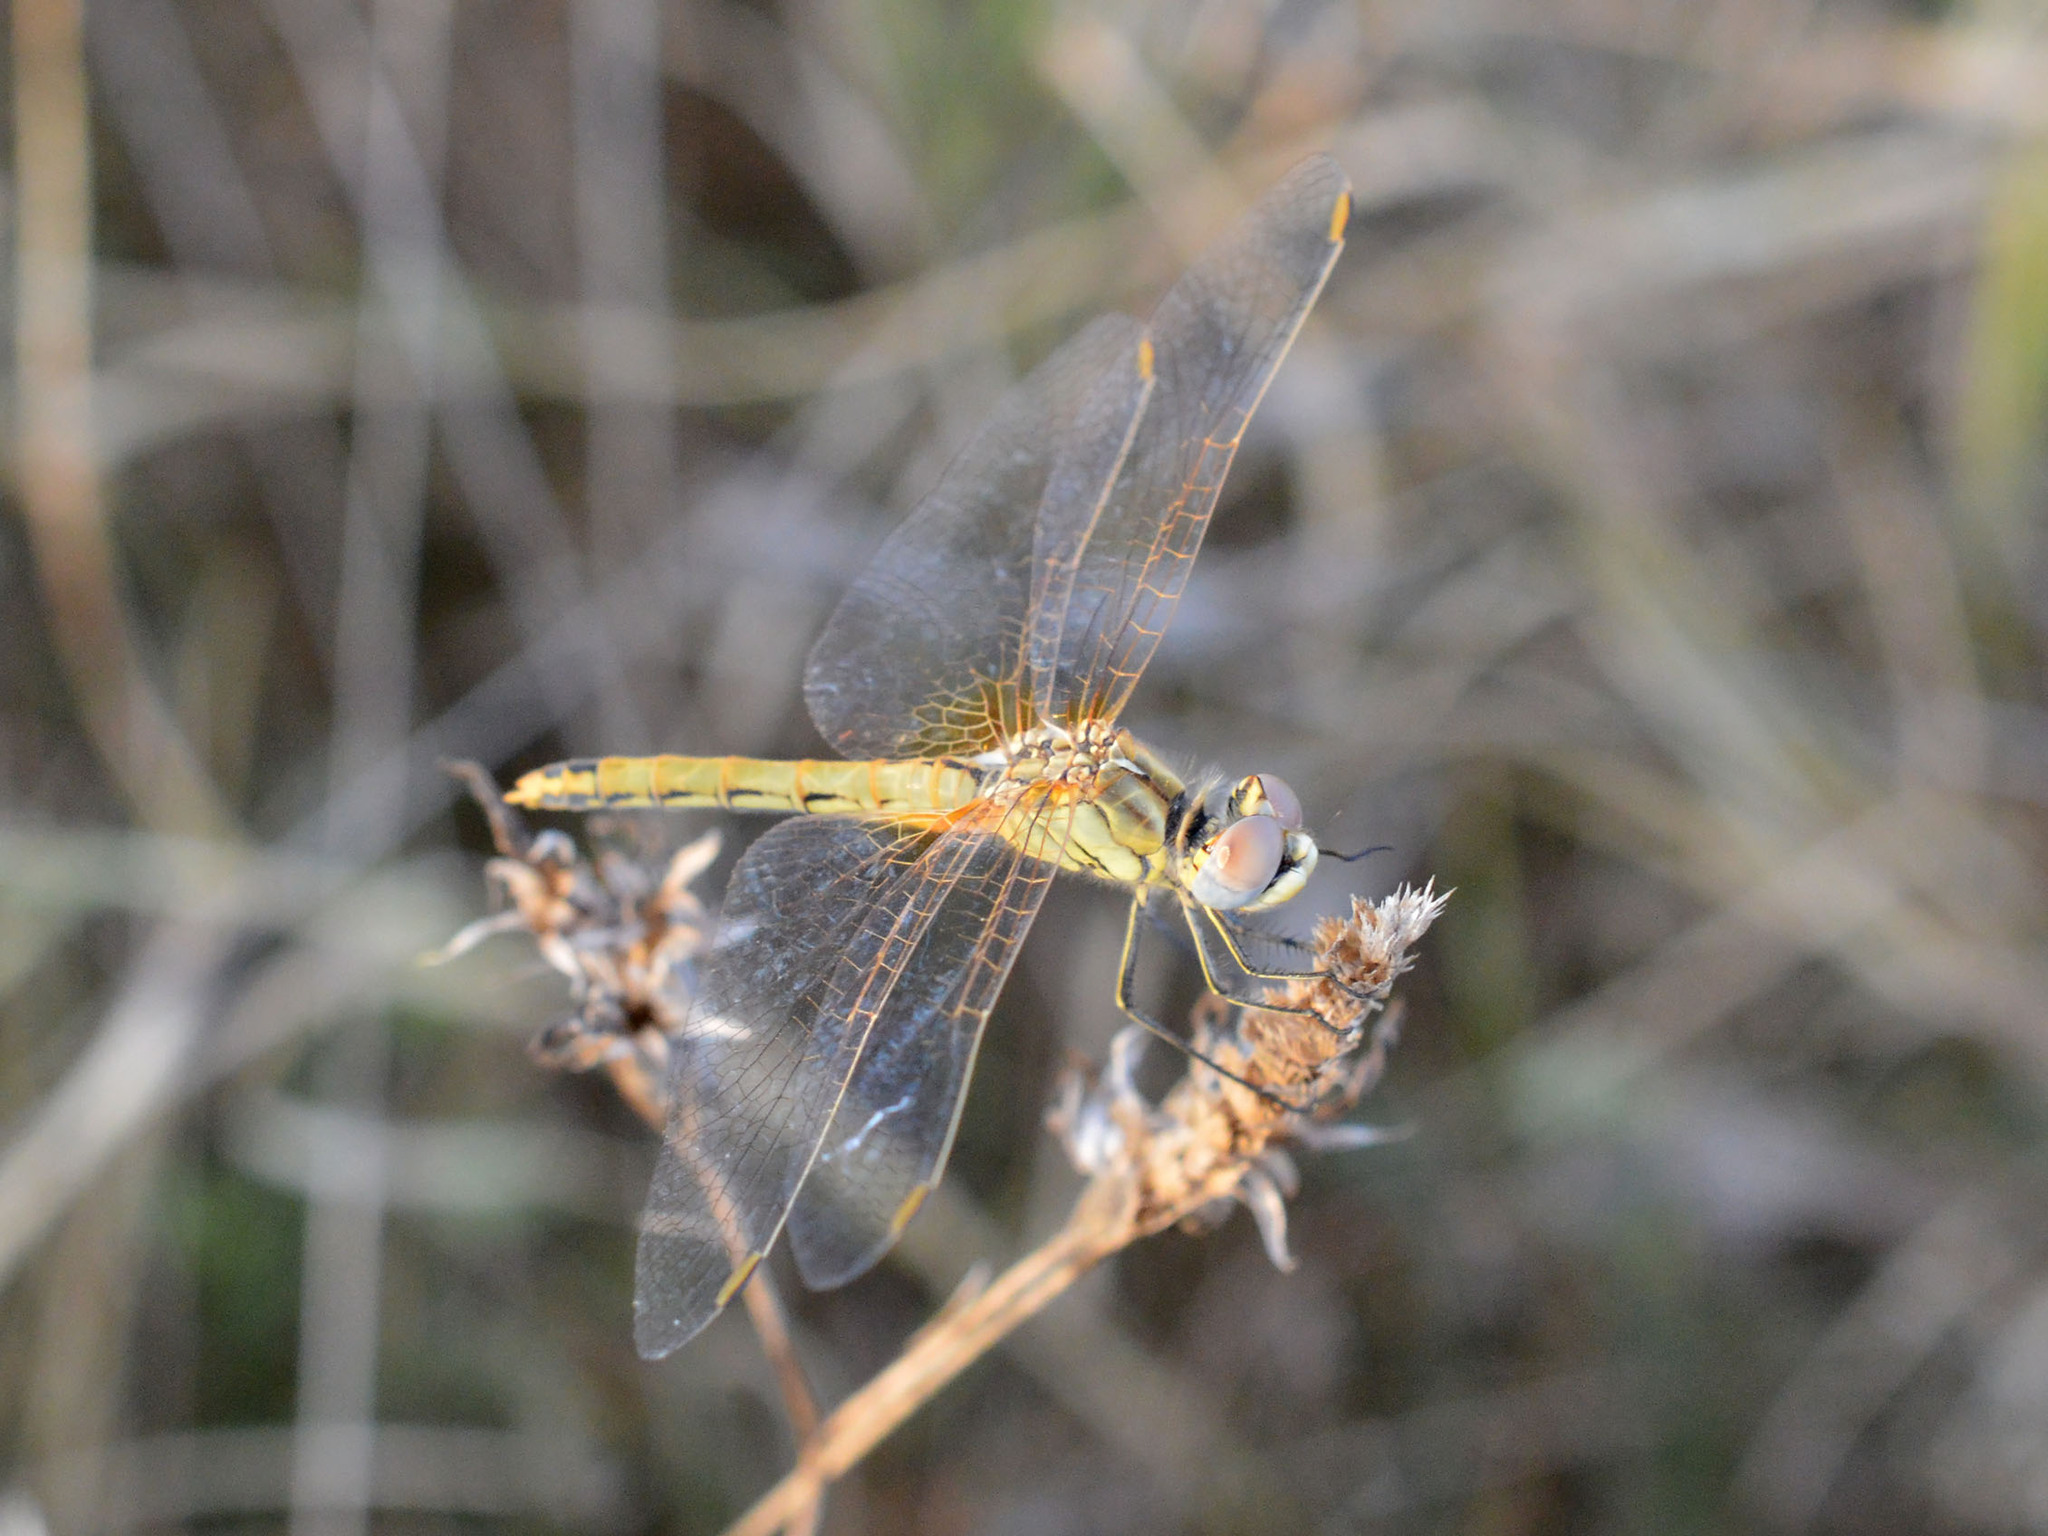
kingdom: Animalia
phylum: Arthropoda
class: Insecta
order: Odonata
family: Libellulidae
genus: Sympetrum
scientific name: Sympetrum fonscolombii
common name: Red-veined darter
